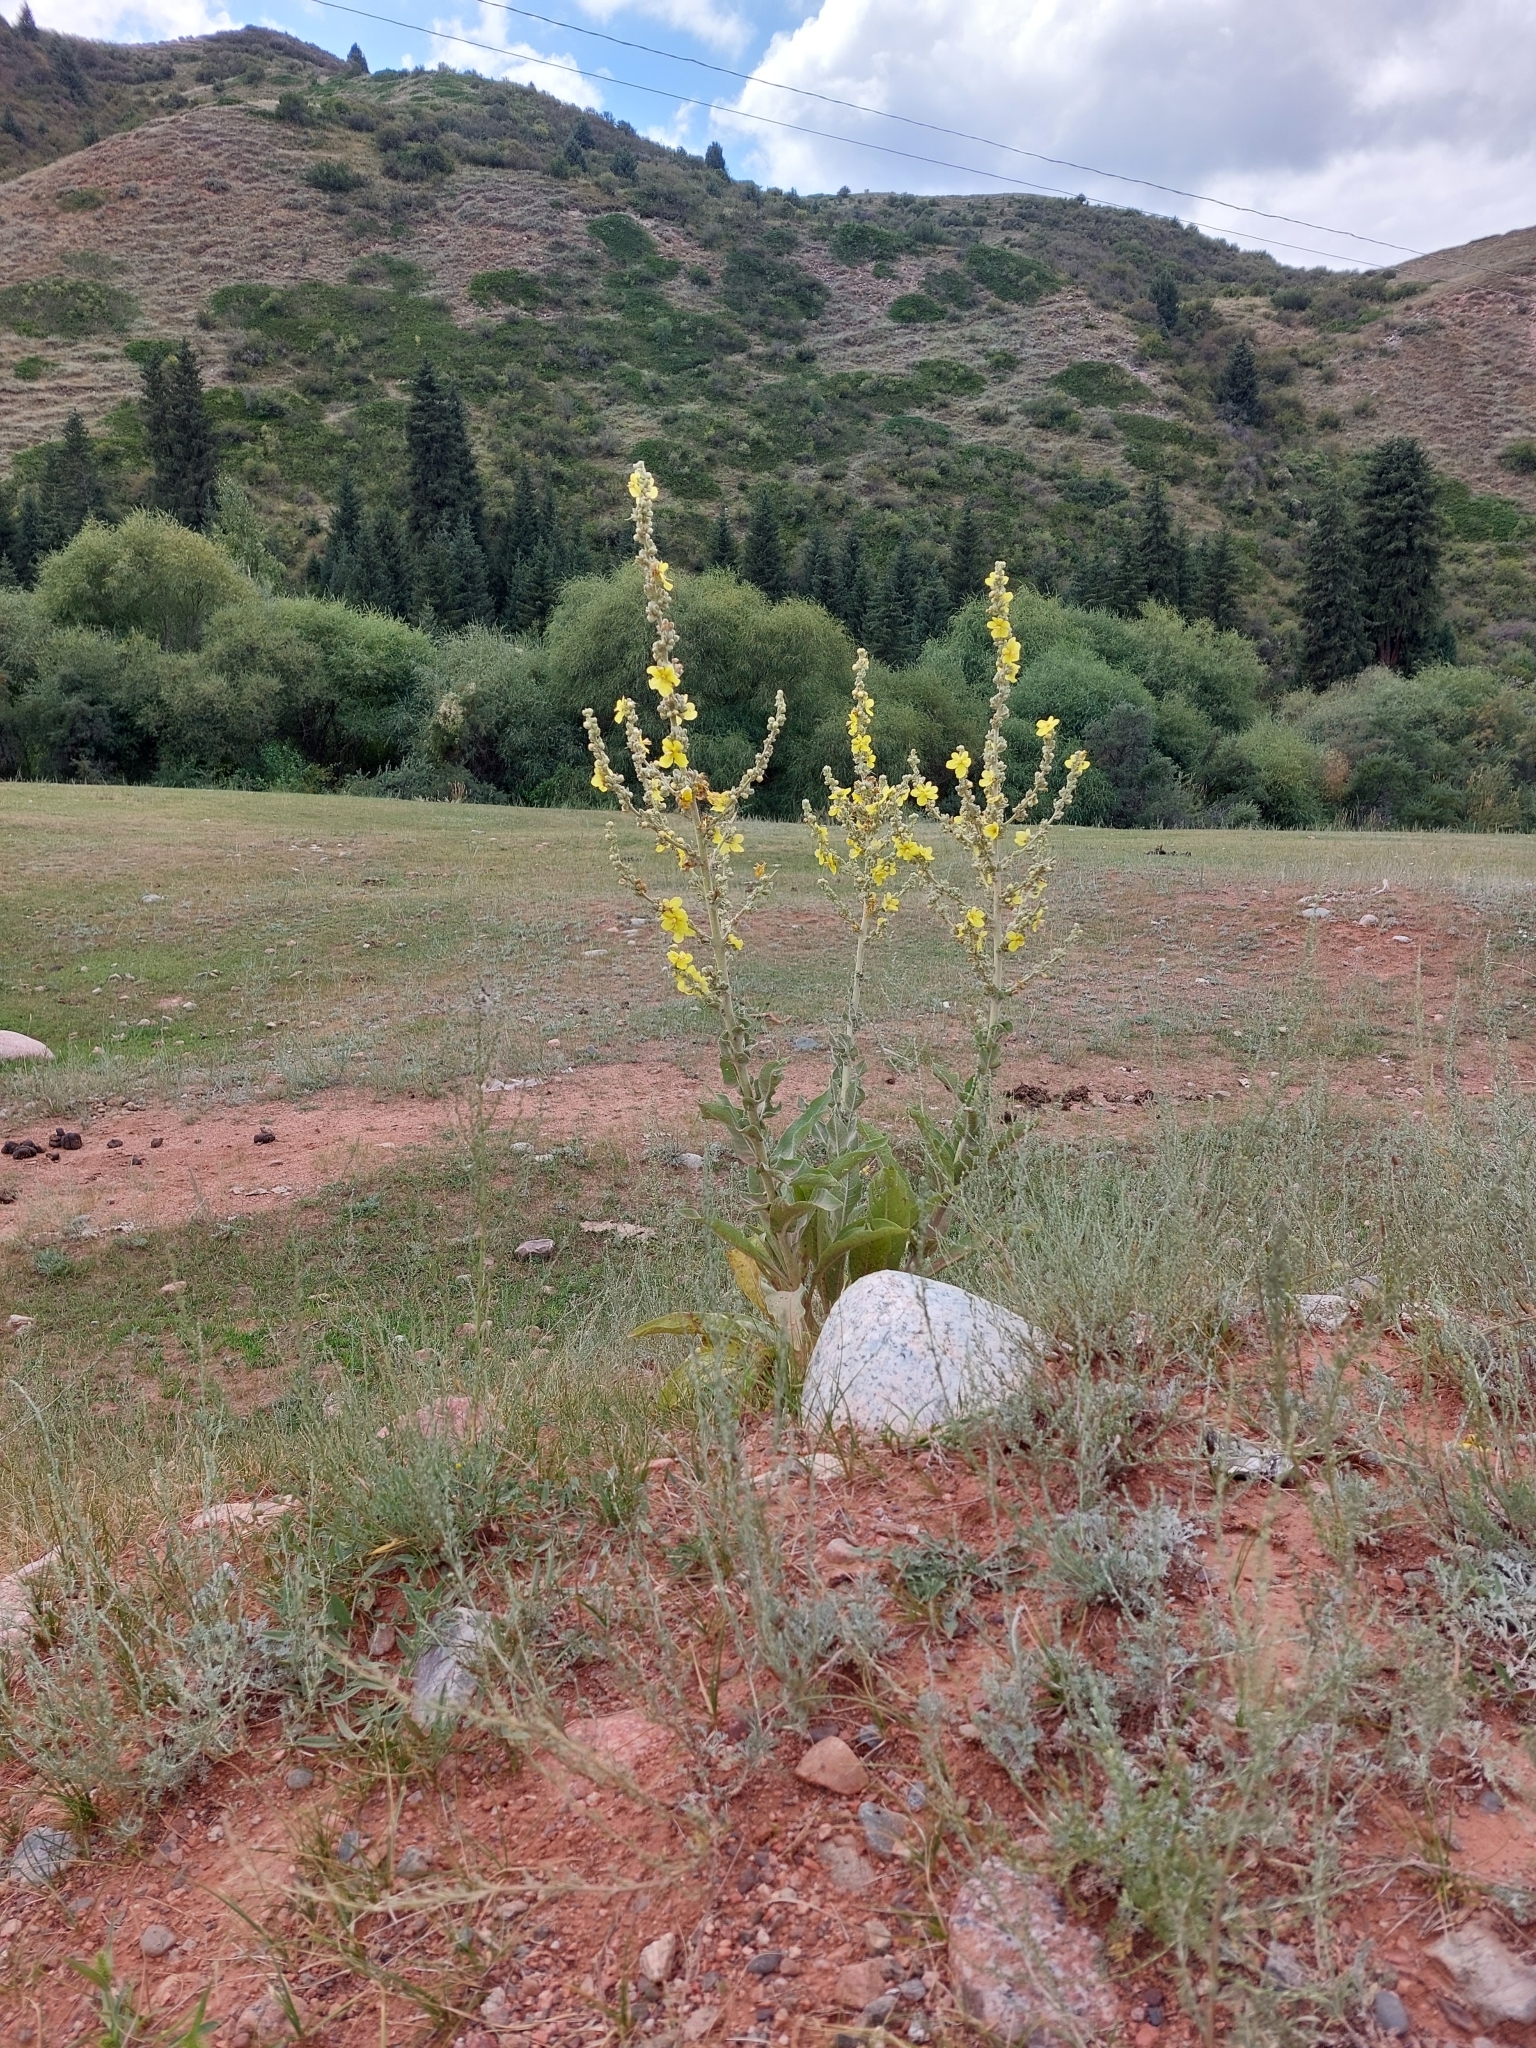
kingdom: Plantae
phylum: Tracheophyta
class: Magnoliopsida
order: Lamiales
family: Scrophulariaceae
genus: Verbascum
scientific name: Verbascum songaricum
